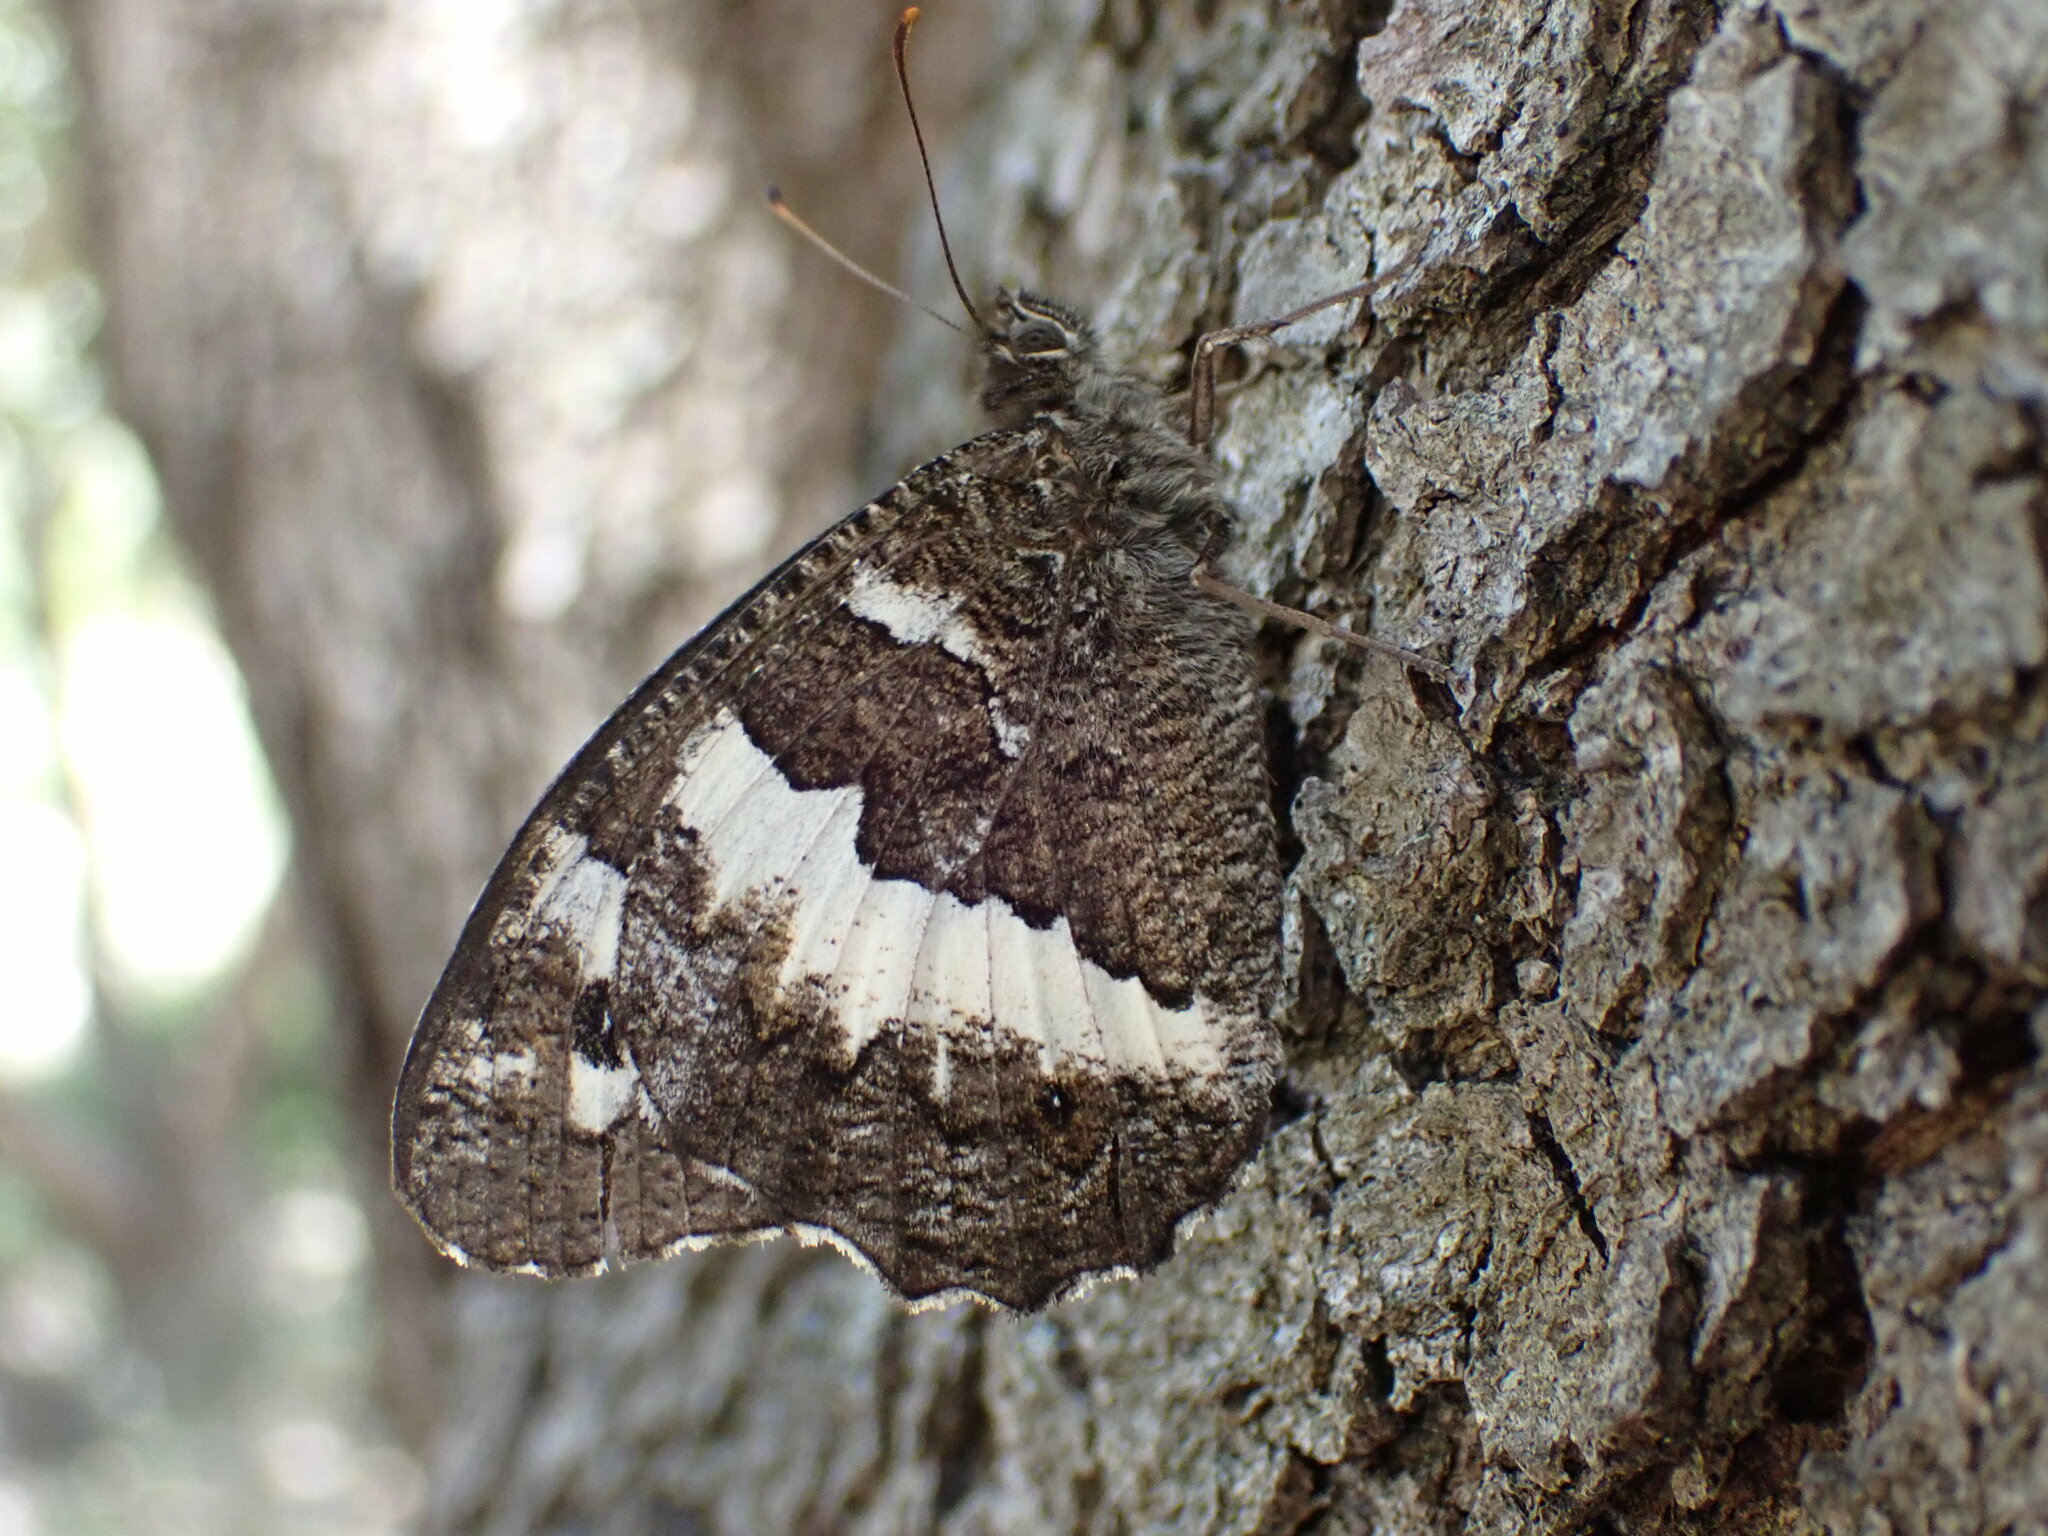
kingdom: Animalia
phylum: Arthropoda
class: Insecta
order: Lepidoptera
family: Lycaenidae
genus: Loweia
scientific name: Loweia tityrus
